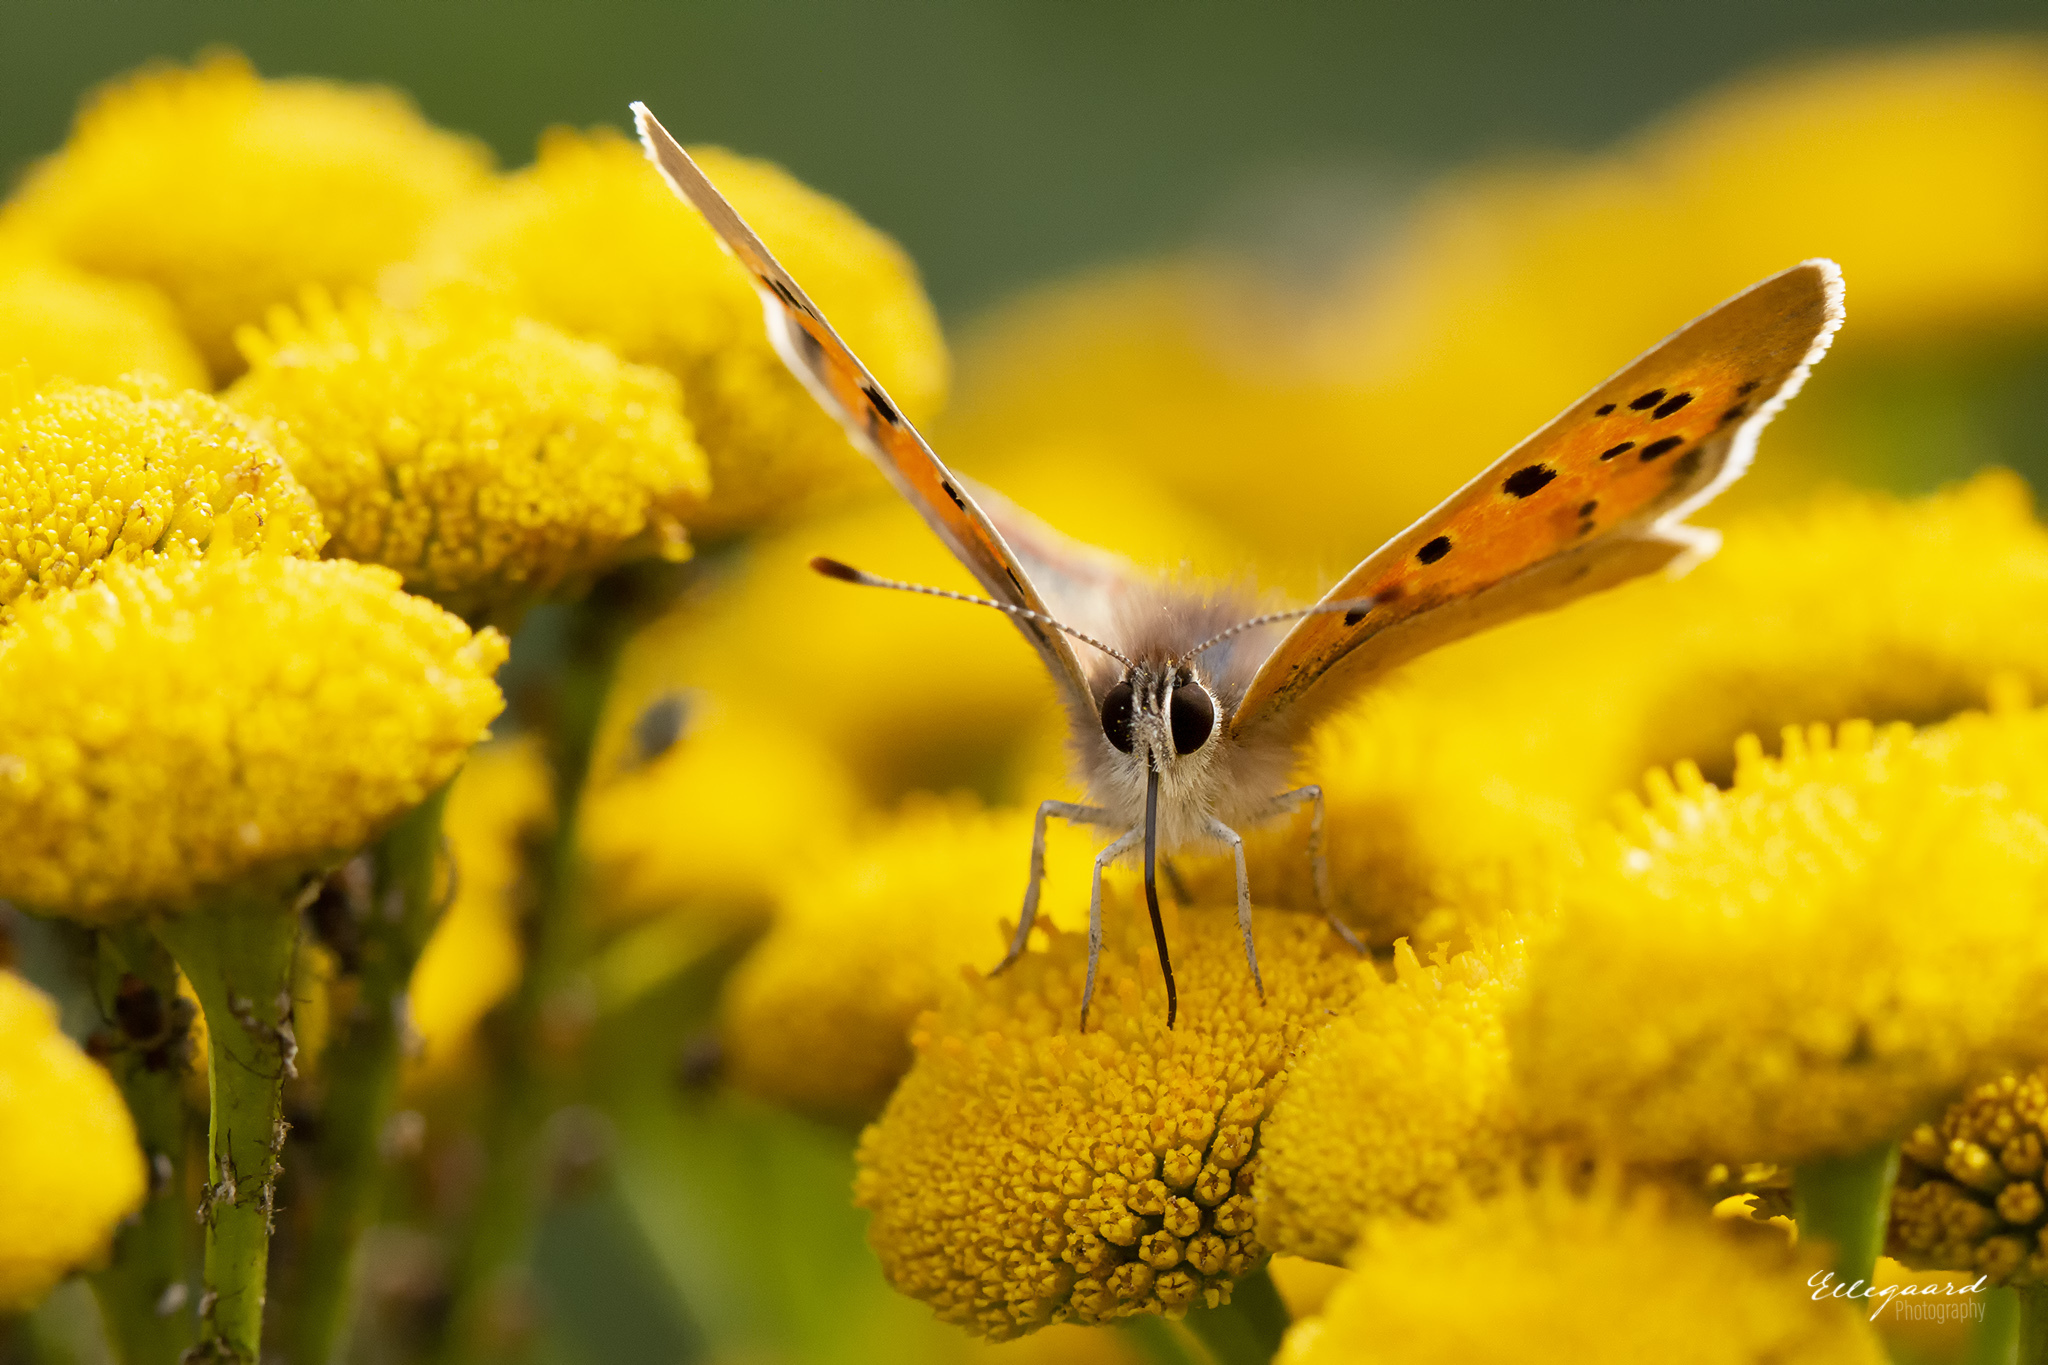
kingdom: Animalia
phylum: Arthropoda
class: Insecta
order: Lepidoptera
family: Lycaenidae
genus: Lycaena
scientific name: Lycaena phlaeas
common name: Small copper
